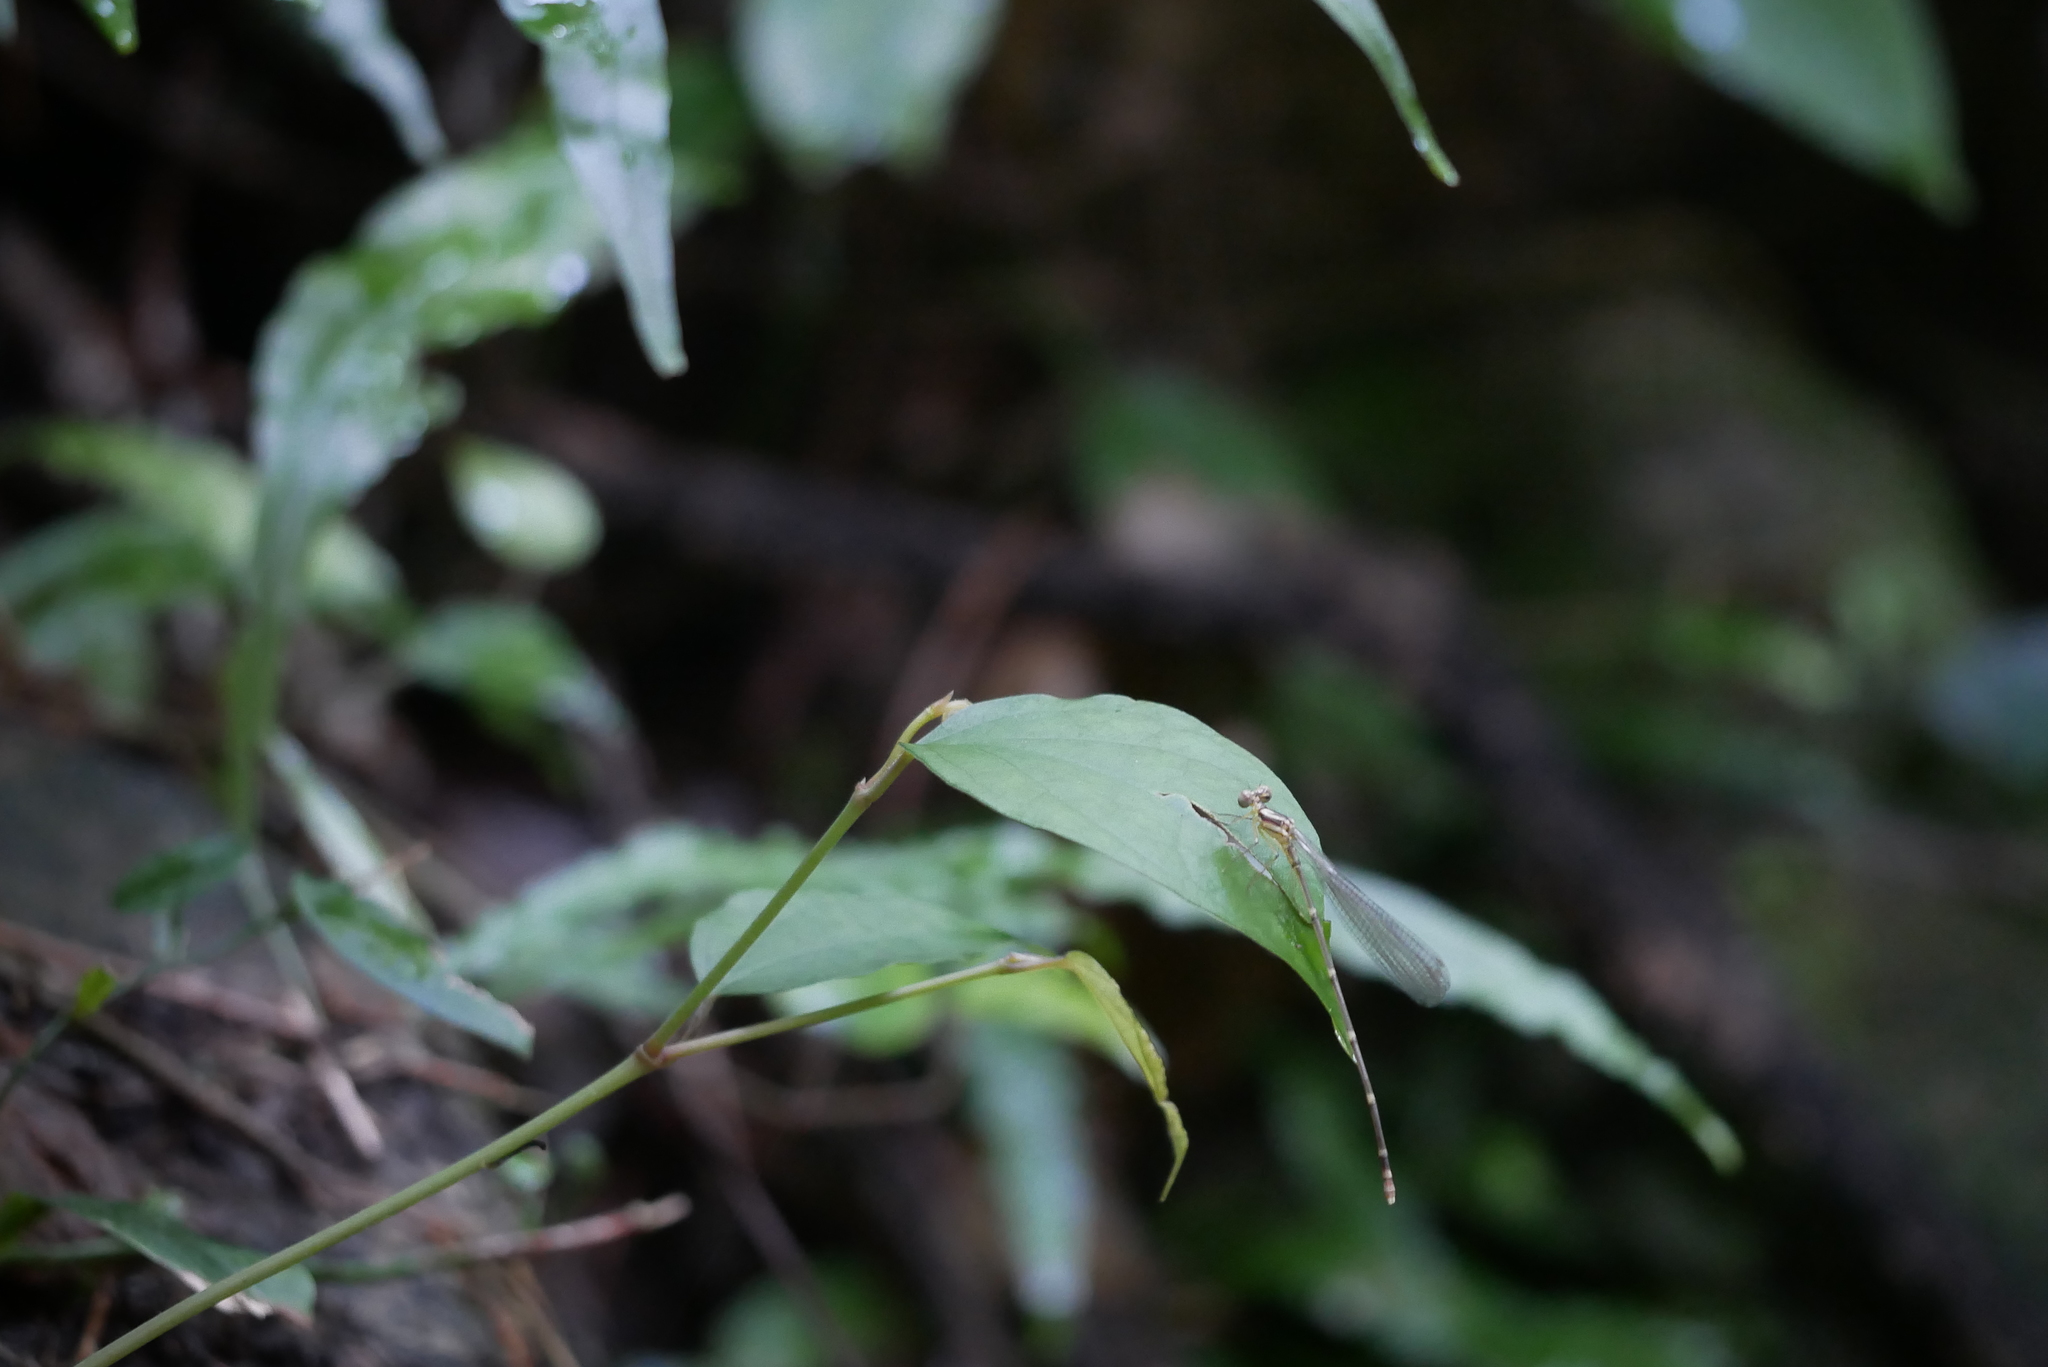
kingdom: Animalia
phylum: Arthropoda
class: Insecta
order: Odonata
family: Platycnemididae
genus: Coeliccia
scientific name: Coeliccia cyanomelas
